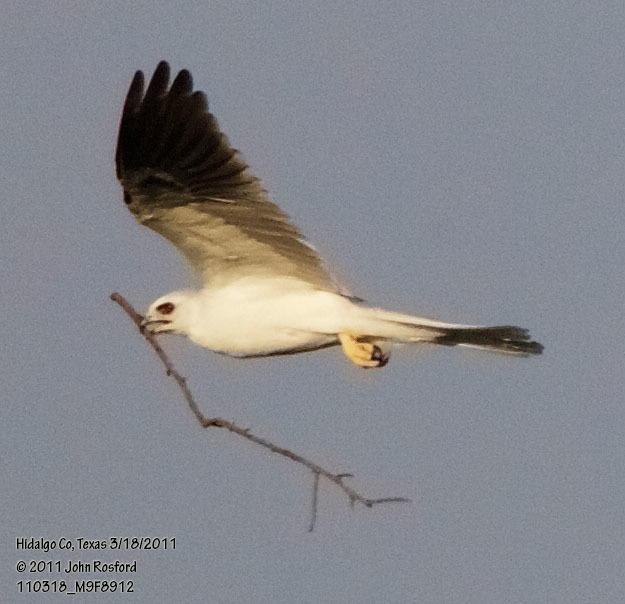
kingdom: Animalia
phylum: Chordata
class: Aves
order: Accipitriformes
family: Accipitridae
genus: Elanus
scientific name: Elanus leucurus
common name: White-tailed kite
